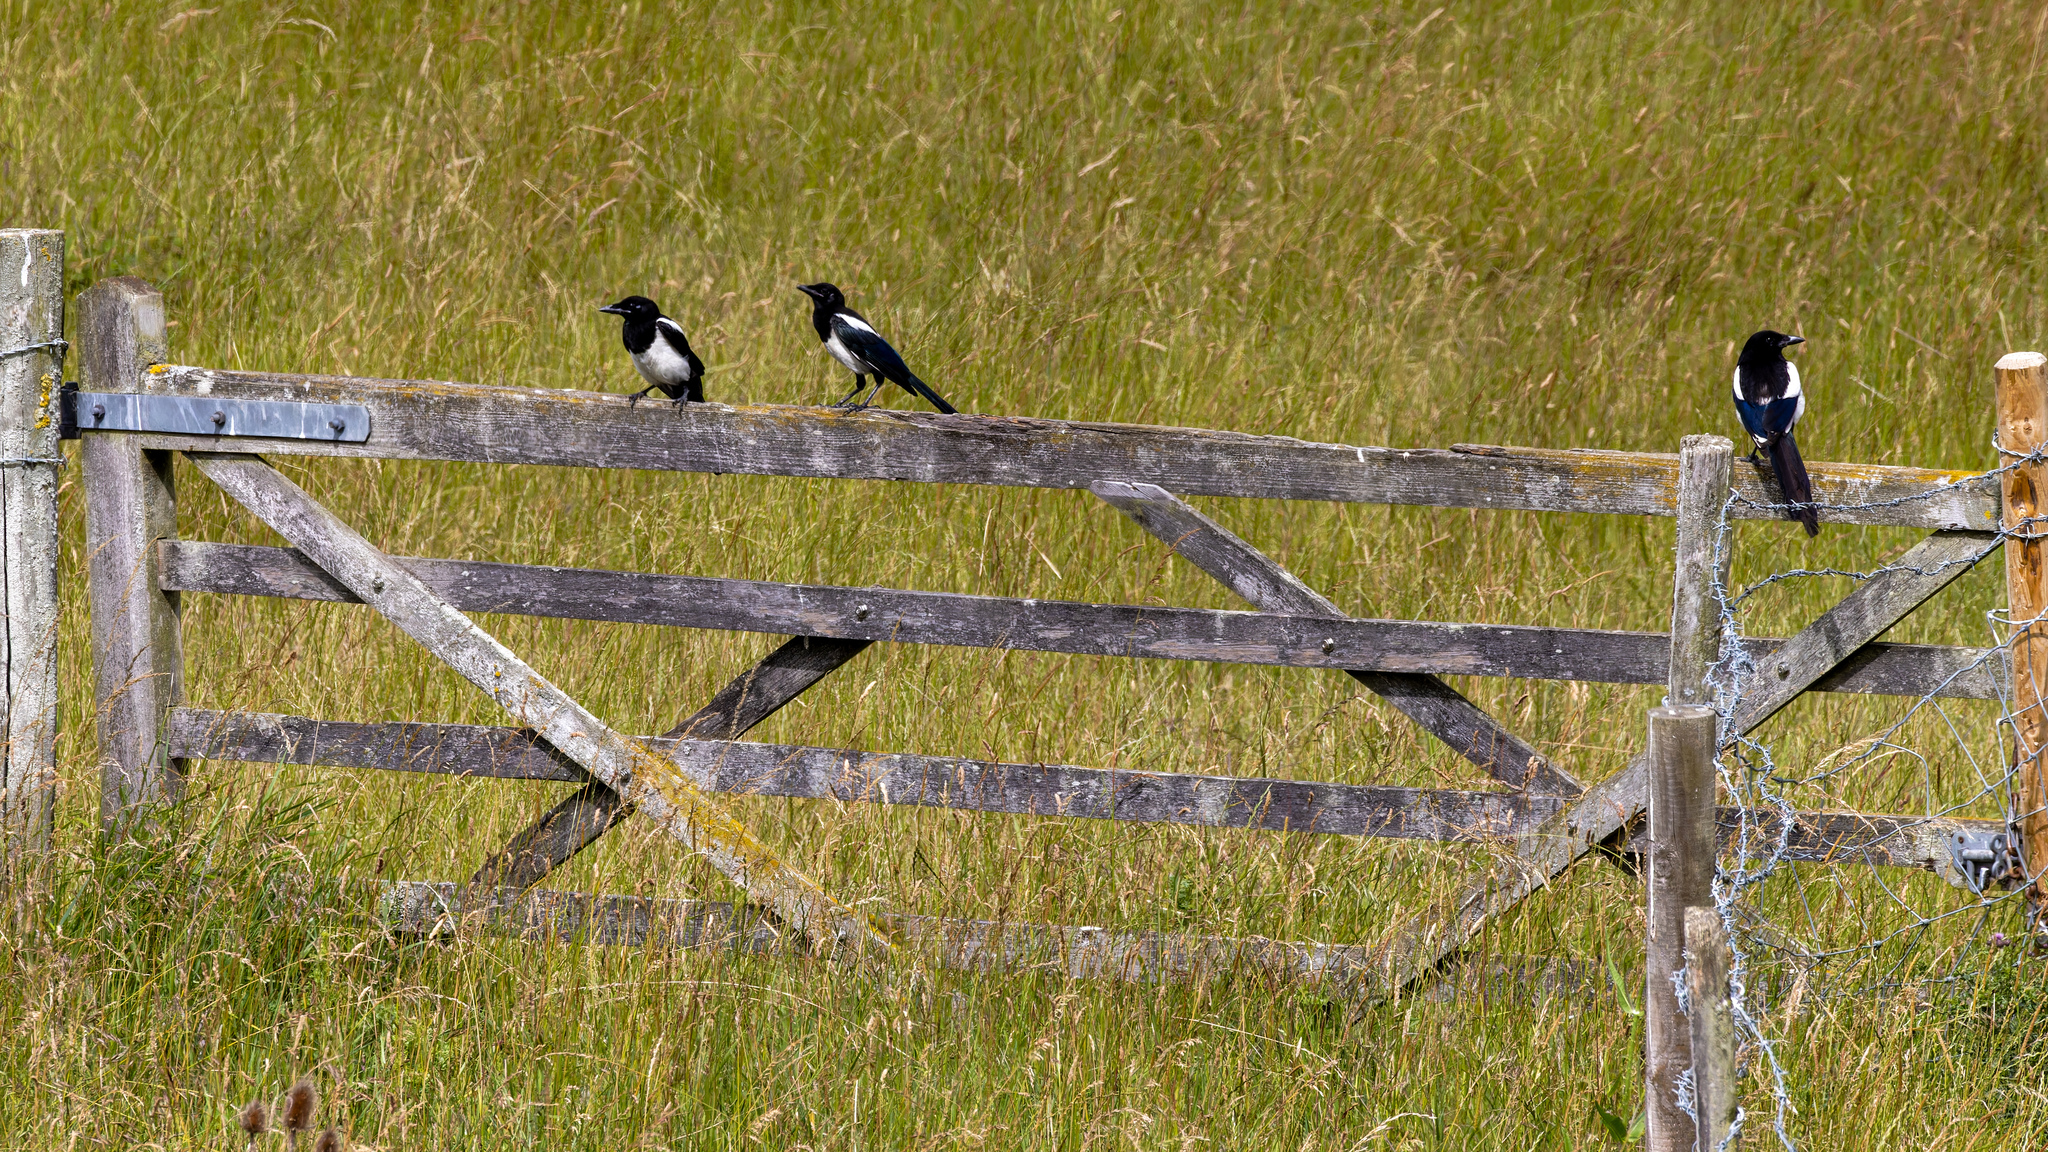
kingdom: Animalia
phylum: Chordata
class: Aves
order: Passeriformes
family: Corvidae
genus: Pica
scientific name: Pica pica
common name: Eurasian magpie
